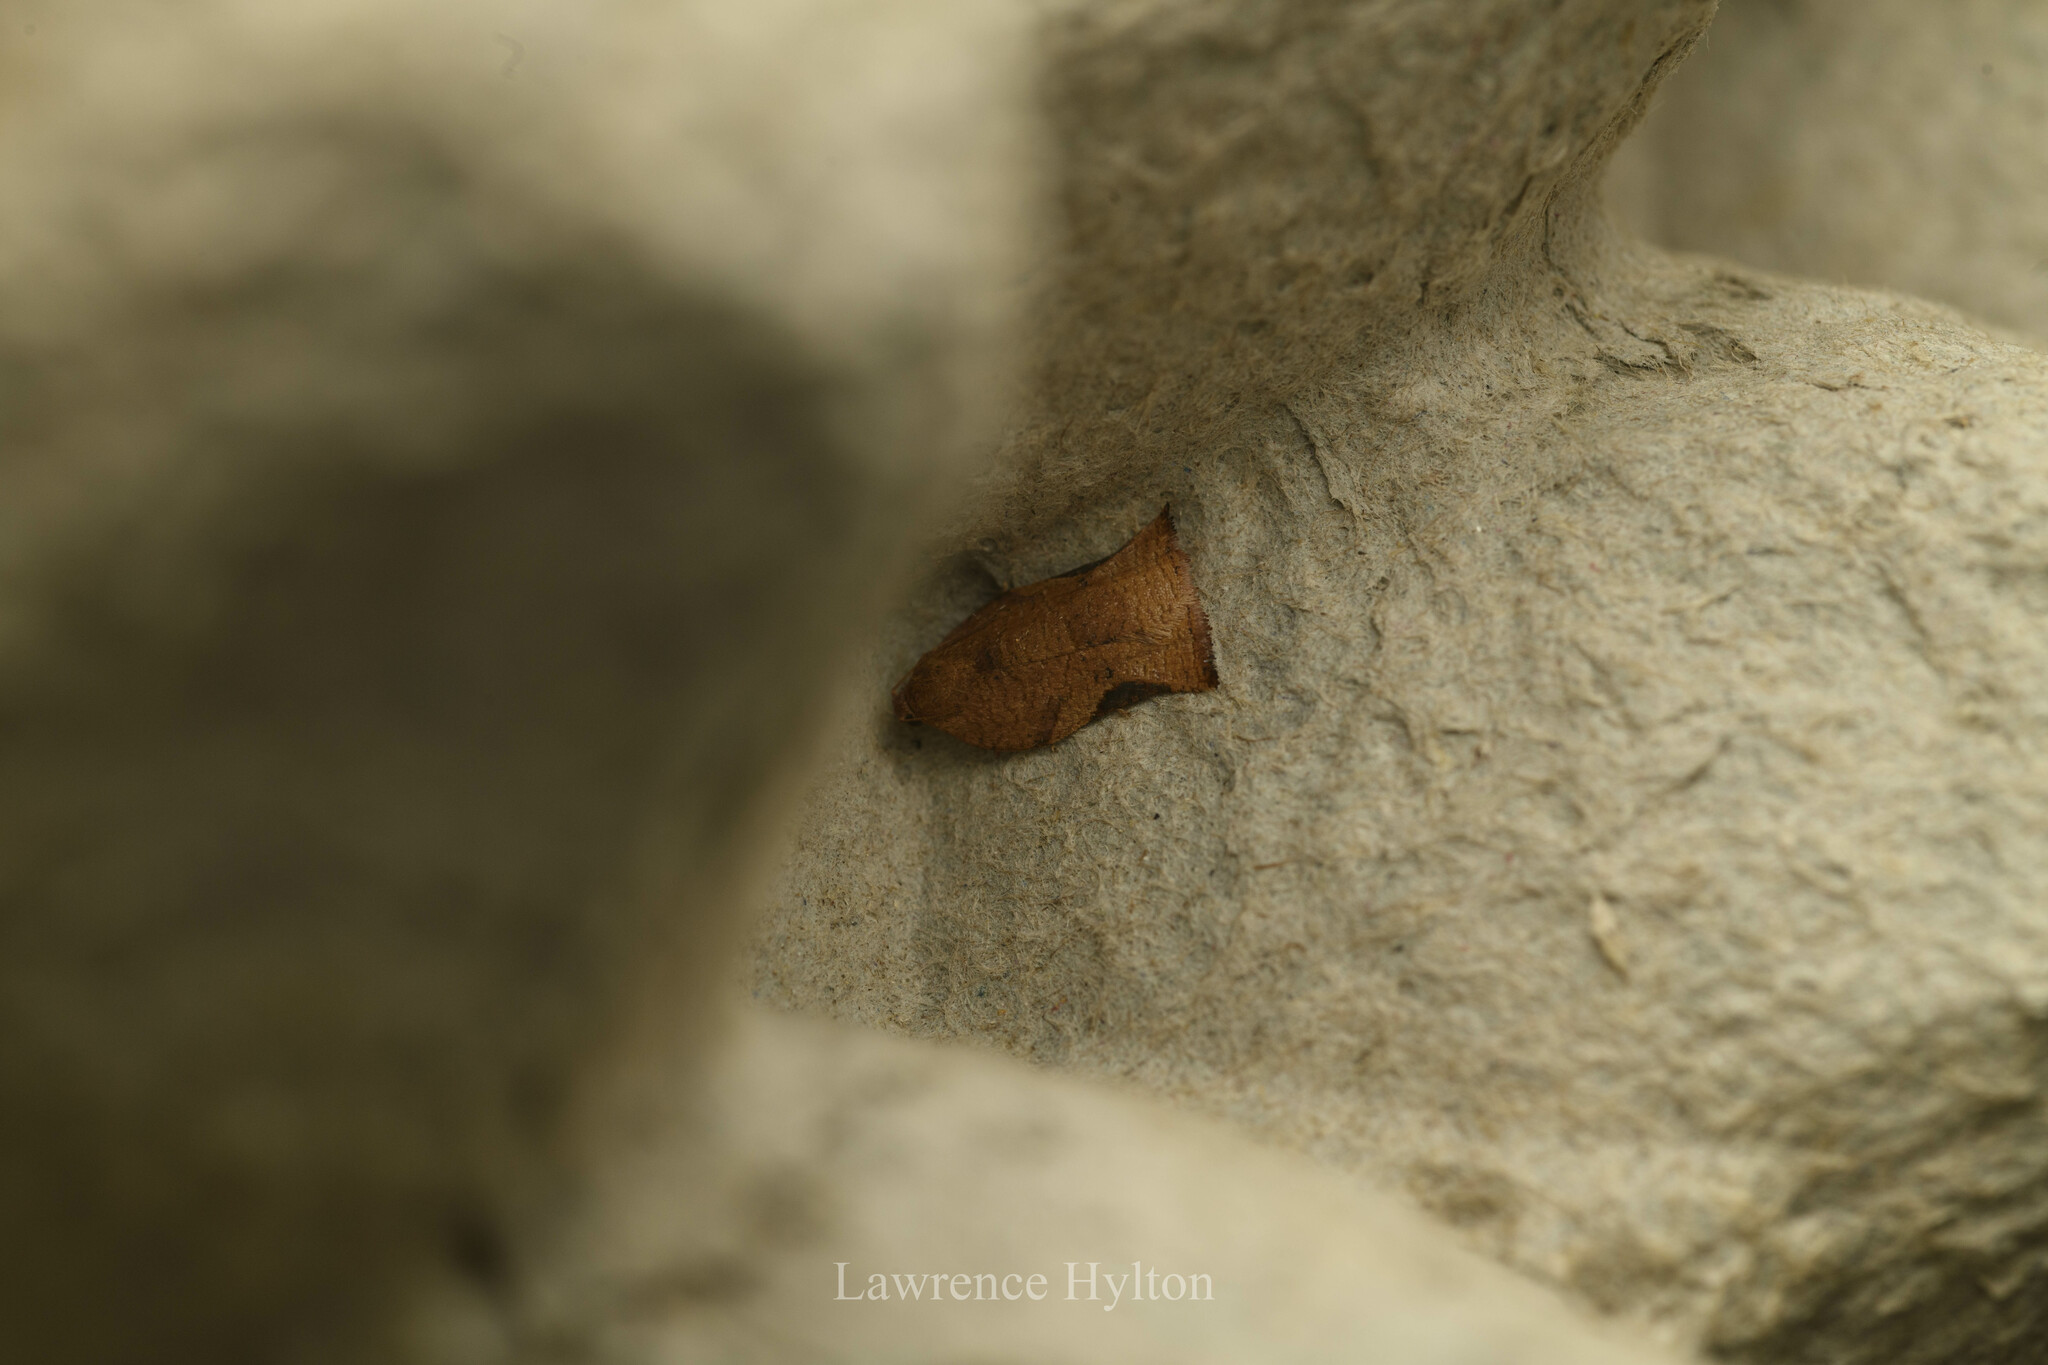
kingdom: Animalia
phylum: Arthropoda
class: Insecta
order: Lepidoptera
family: Tortricidae
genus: Archips
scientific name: Archips micaceana
